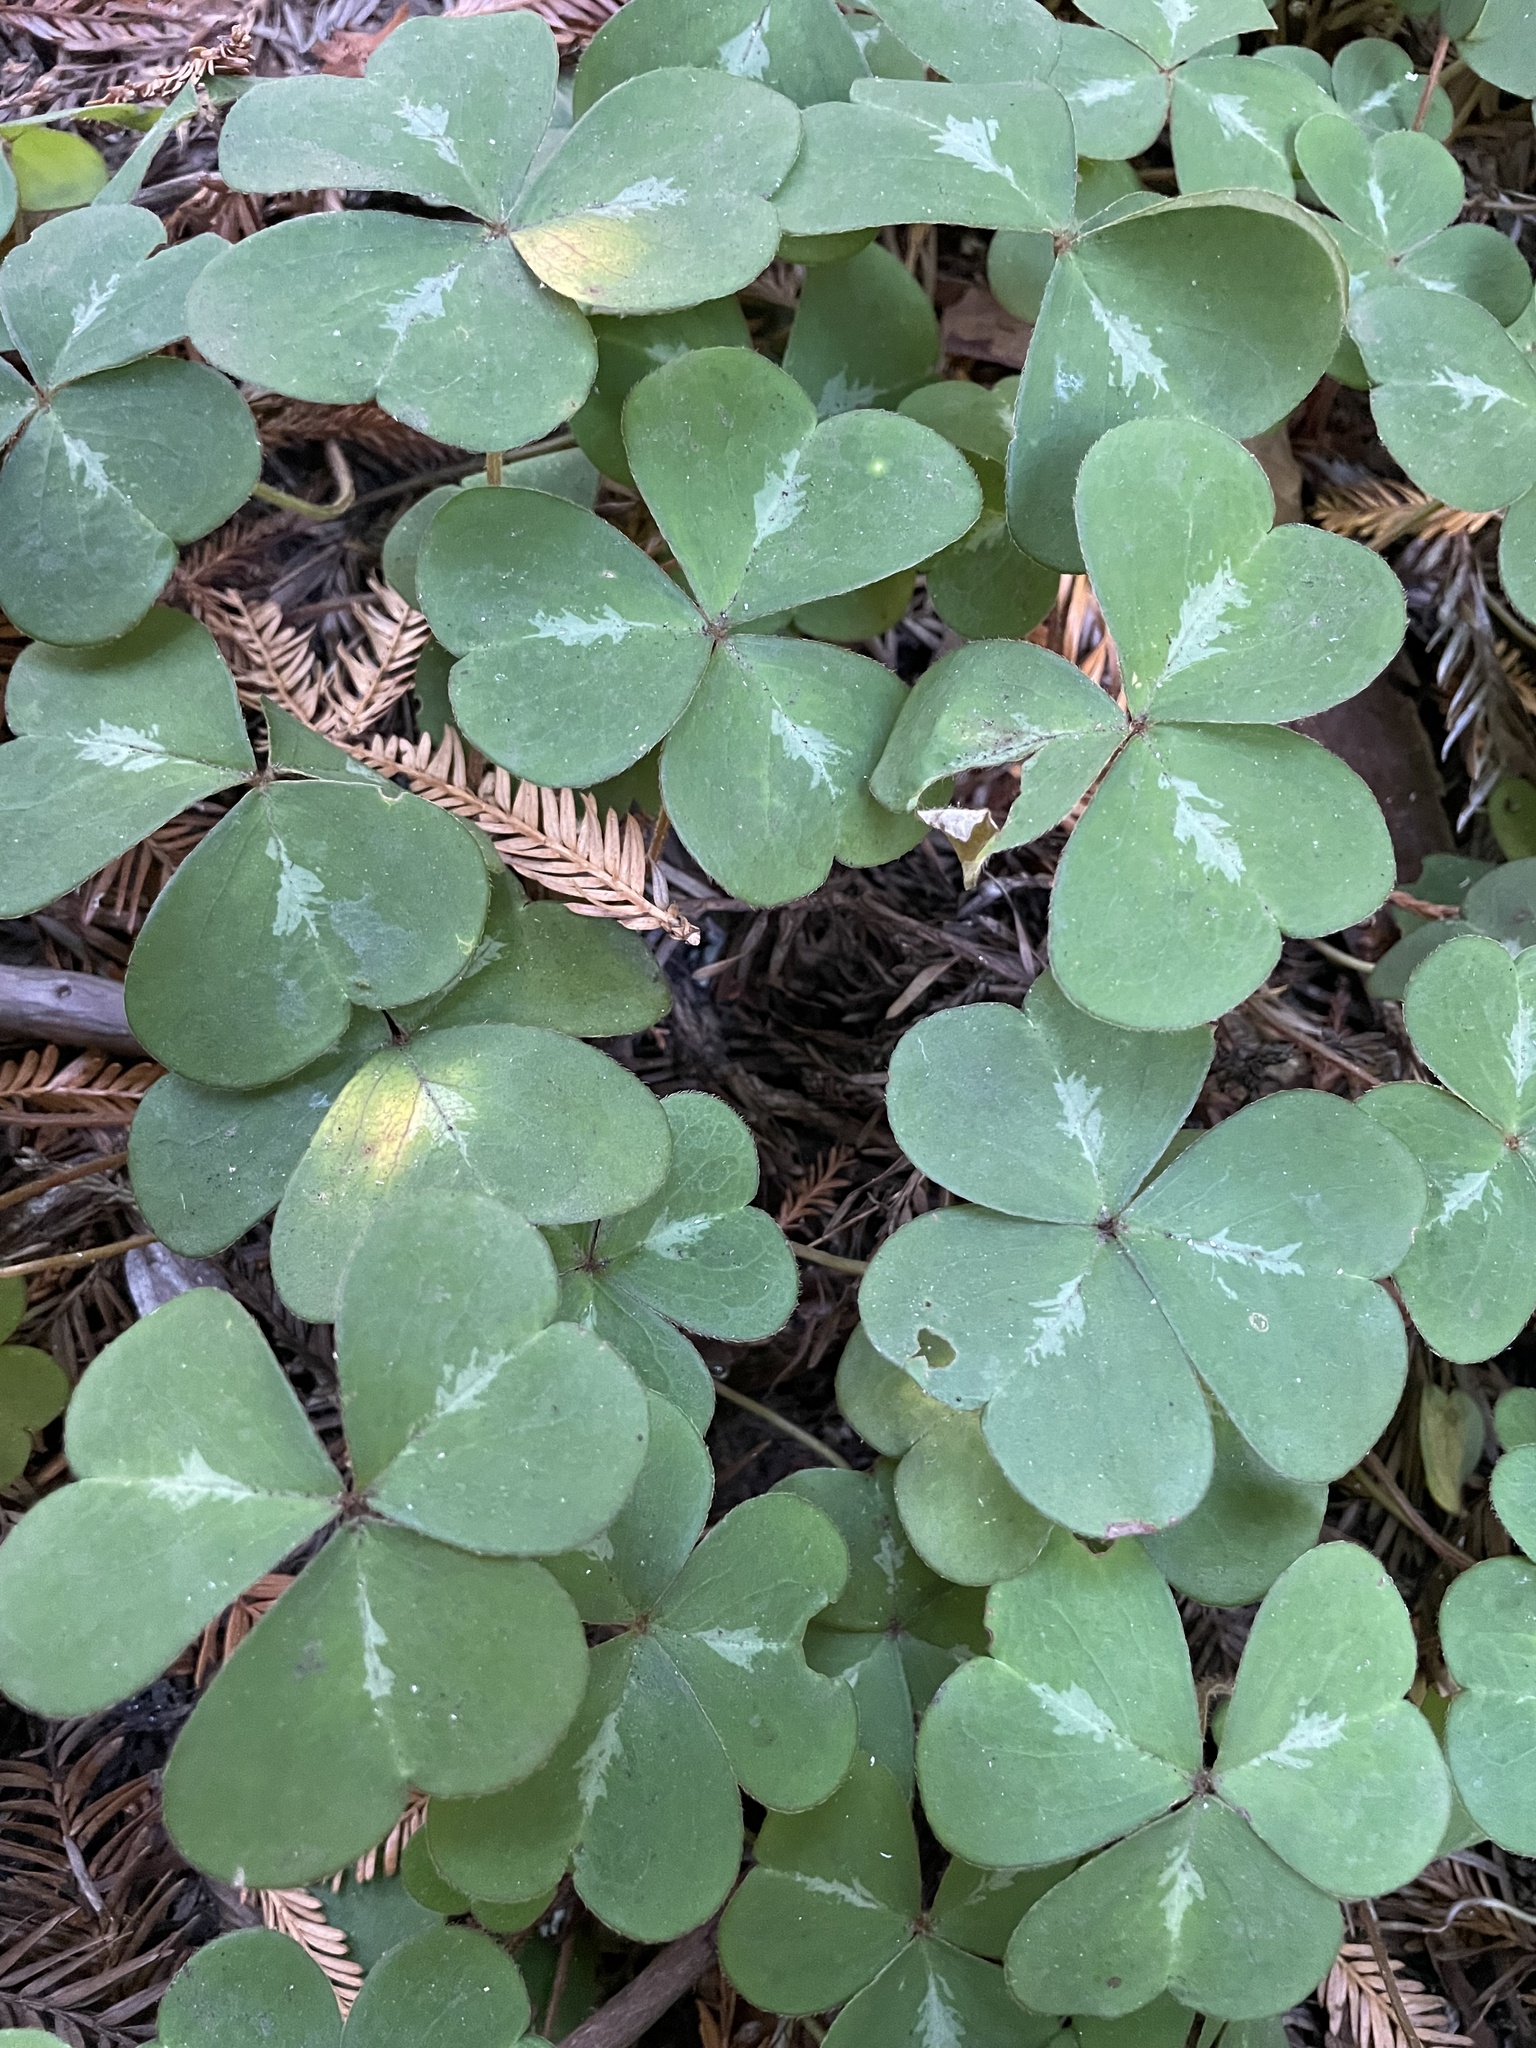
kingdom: Plantae
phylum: Tracheophyta
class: Magnoliopsida
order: Oxalidales
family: Oxalidaceae
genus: Oxalis
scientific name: Oxalis oregana
